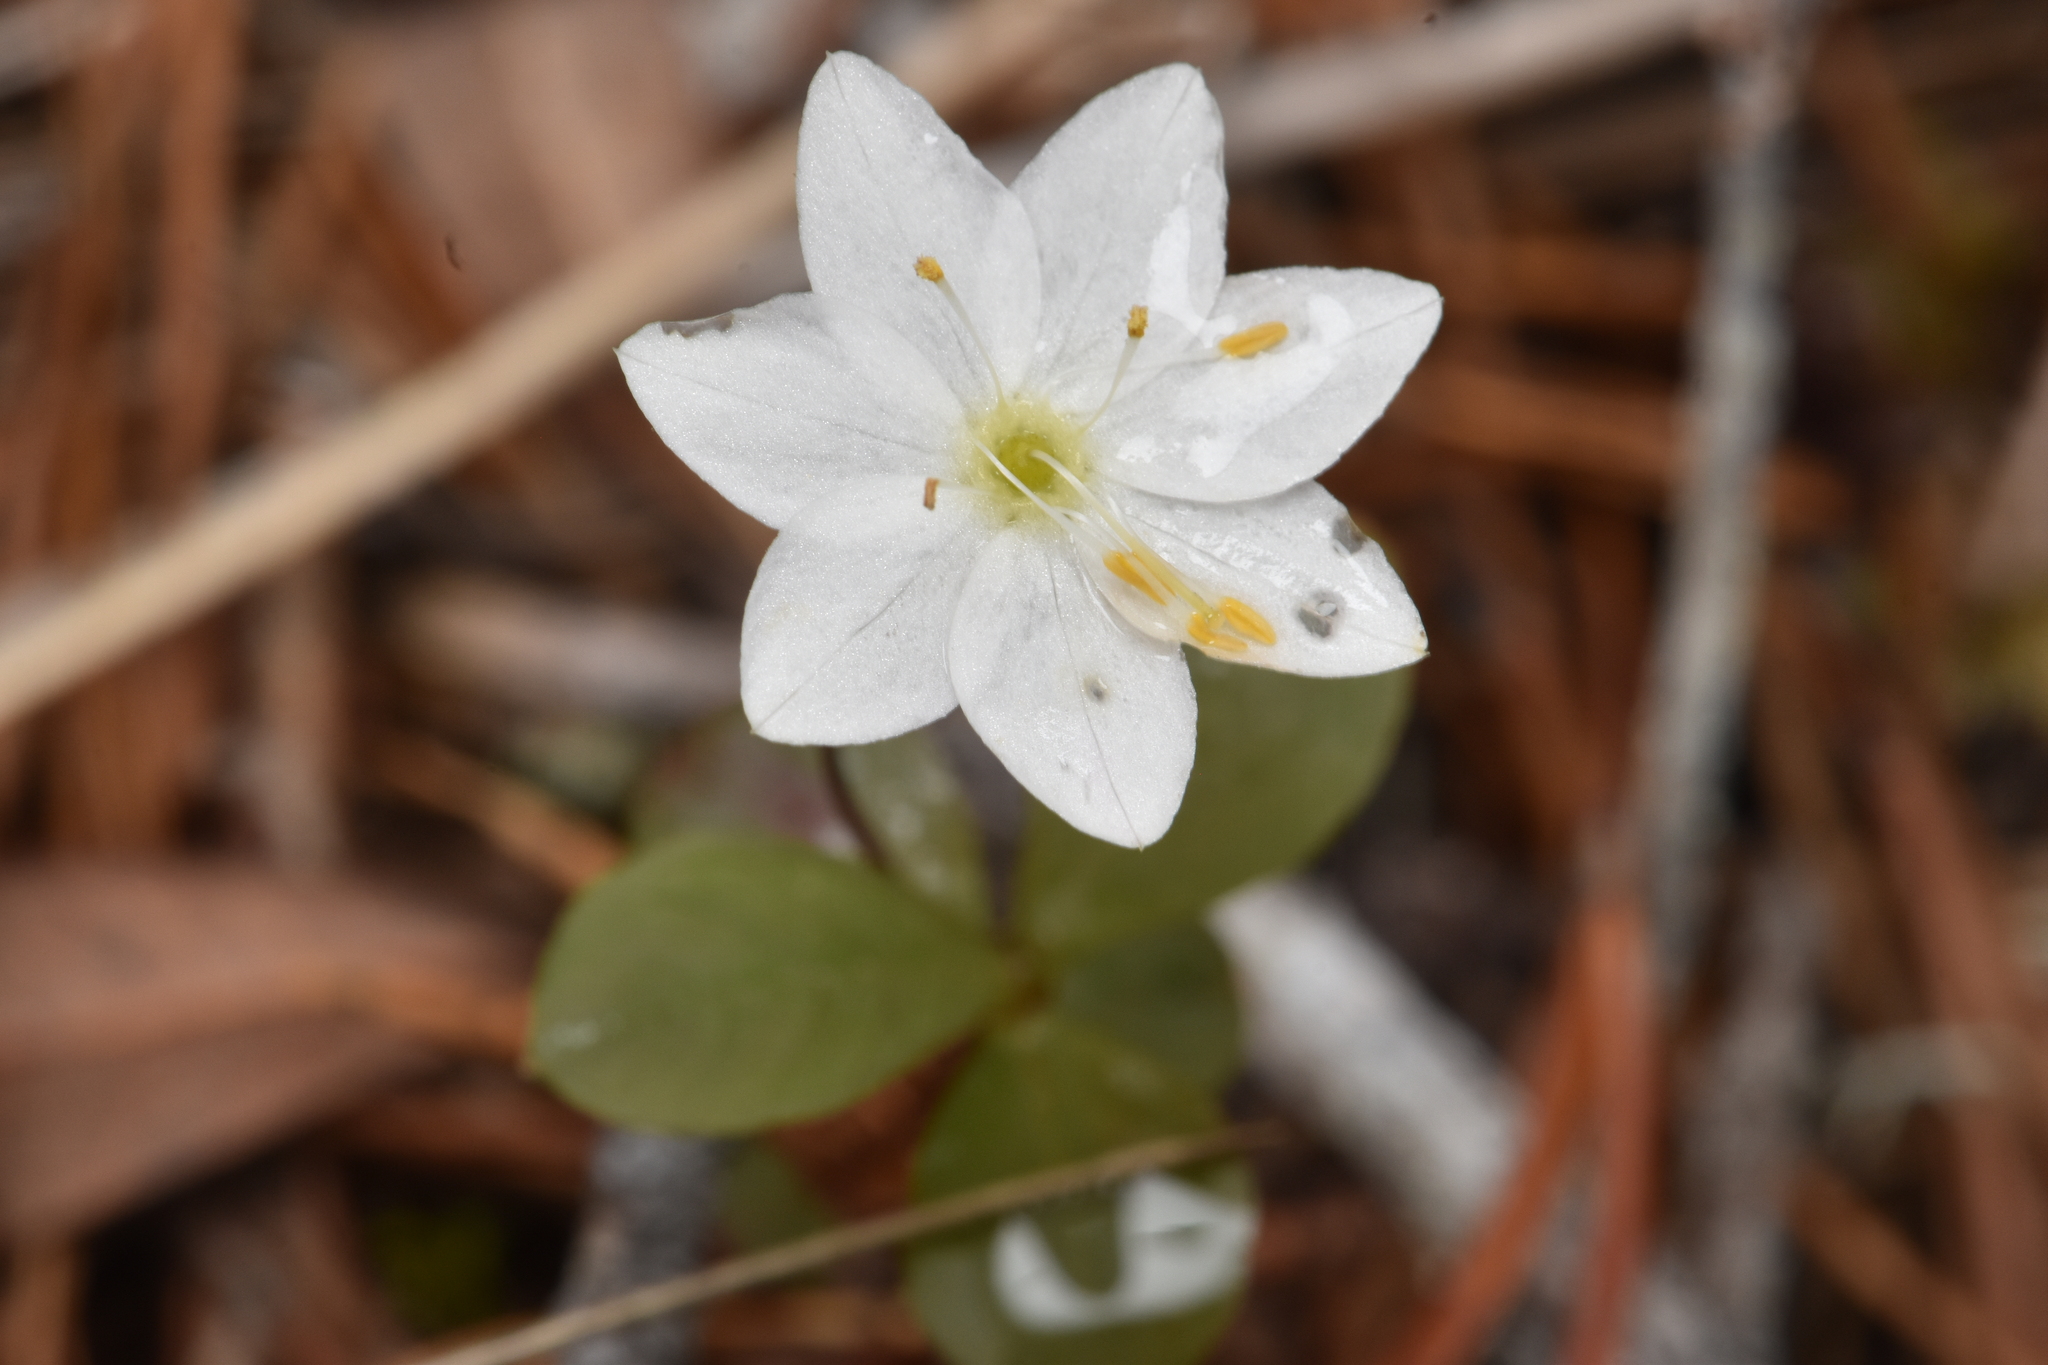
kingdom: Plantae
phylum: Tracheophyta
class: Magnoliopsida
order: Ericales
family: Primulaceae
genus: Lysimachia
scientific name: Lysimachia europaea
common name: Arctic starflower
